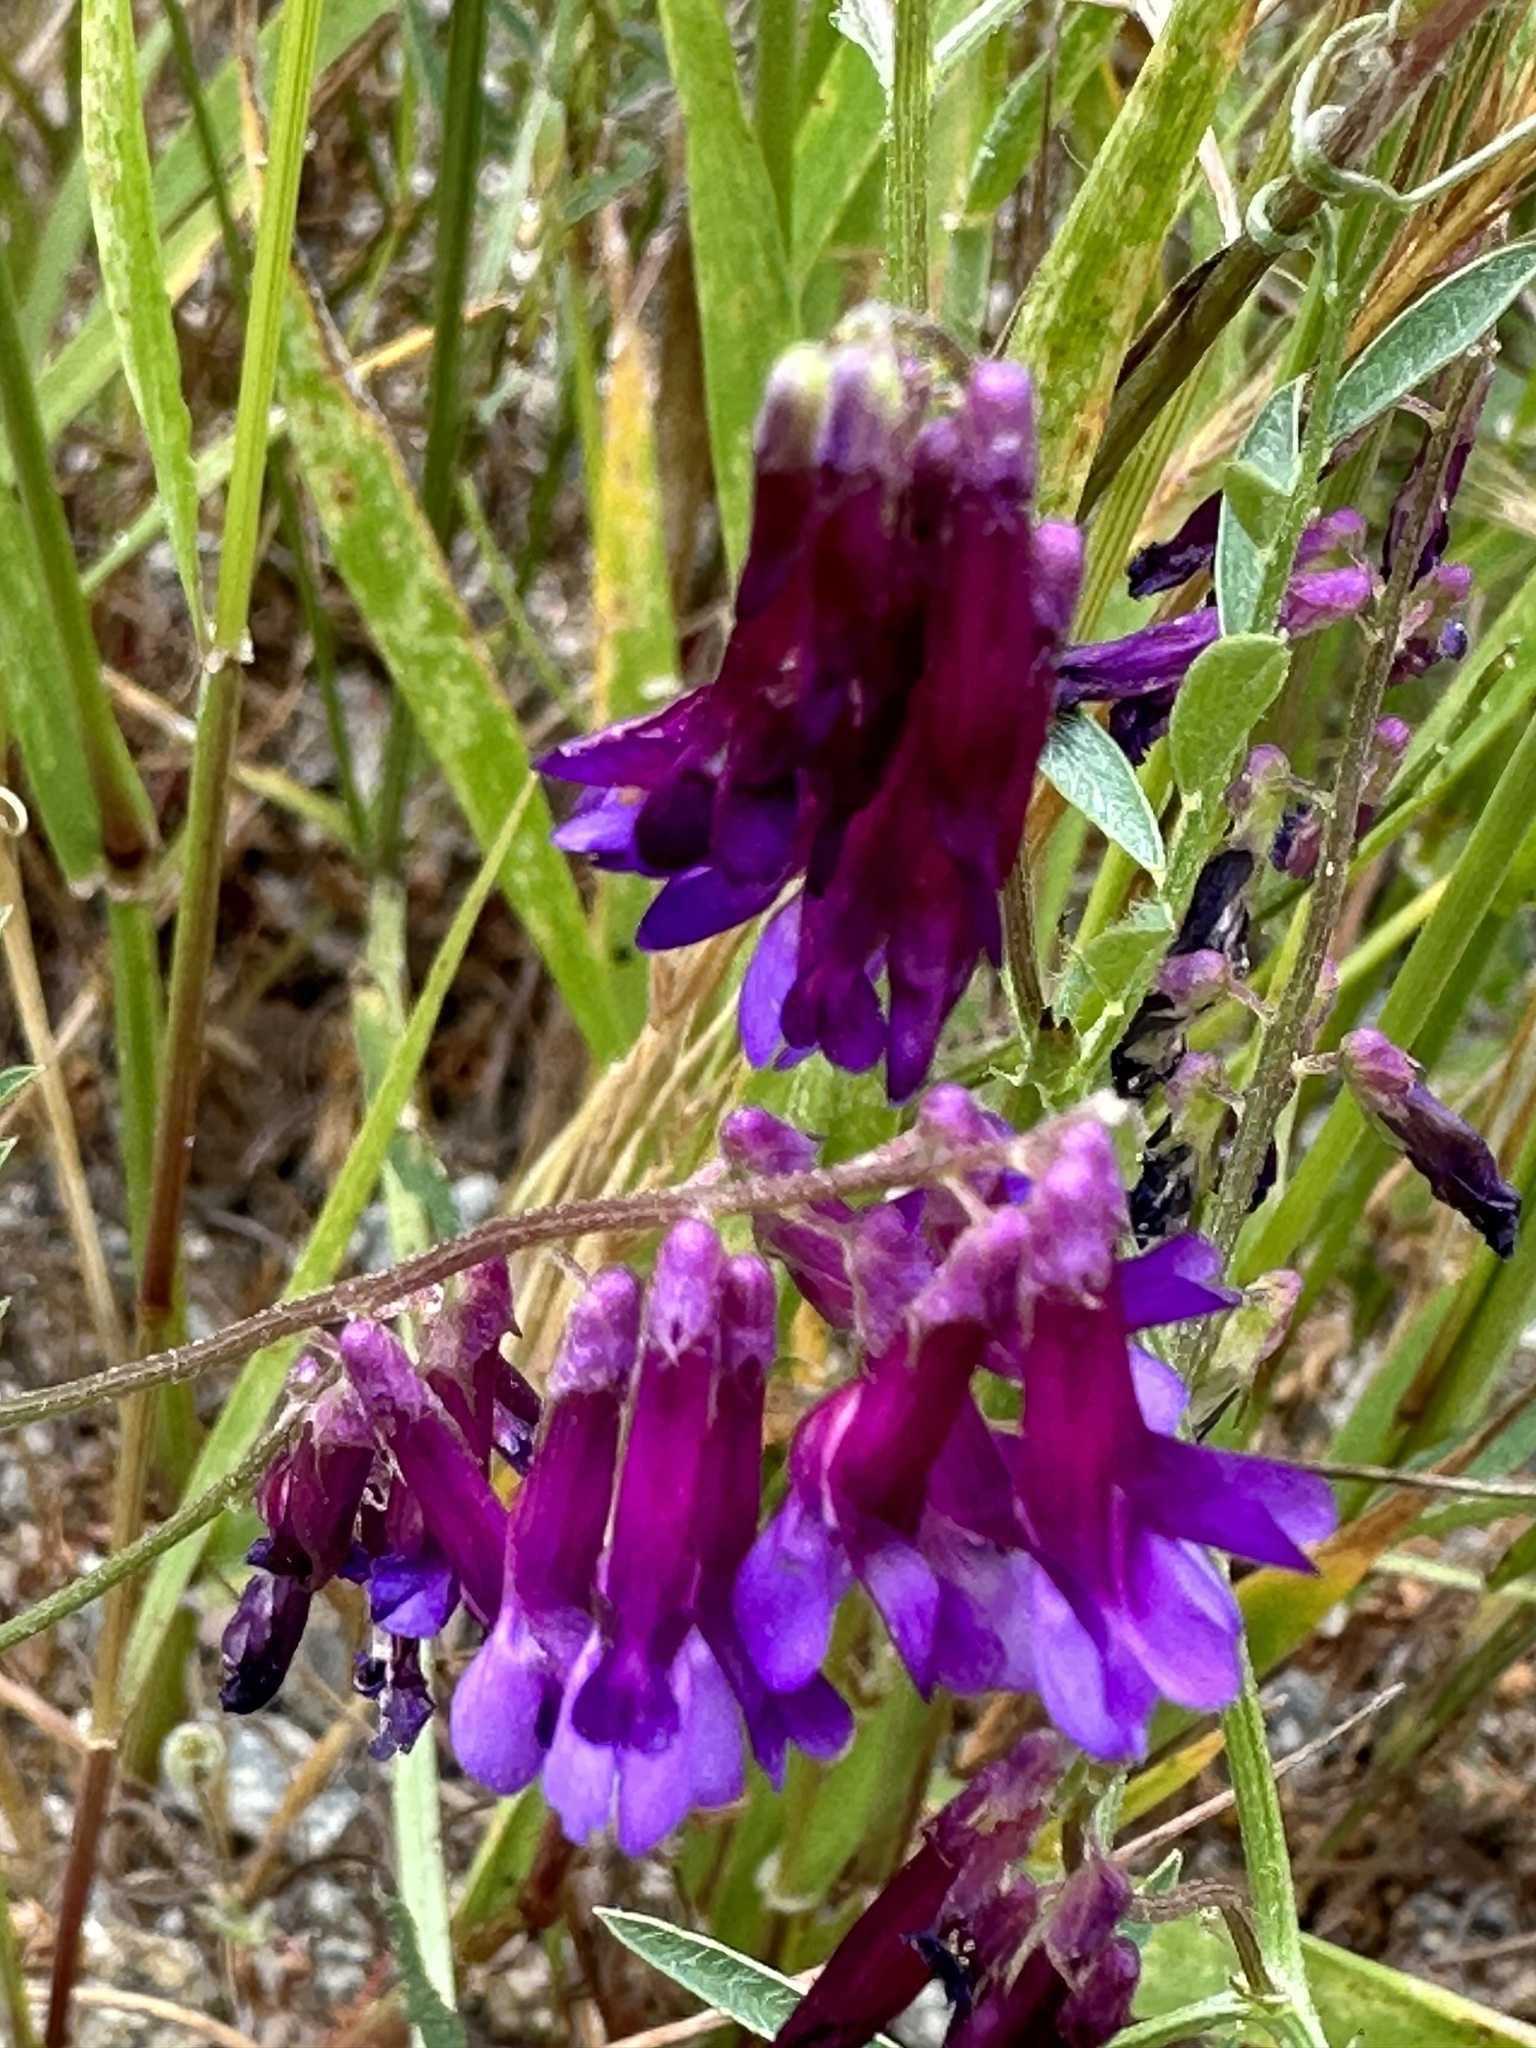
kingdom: Plantae
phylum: Tracheophyta
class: Magnoliopsida
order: Fabales
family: Fabaceae
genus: Vicia
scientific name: Vicia villosa
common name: Fodder vetch
